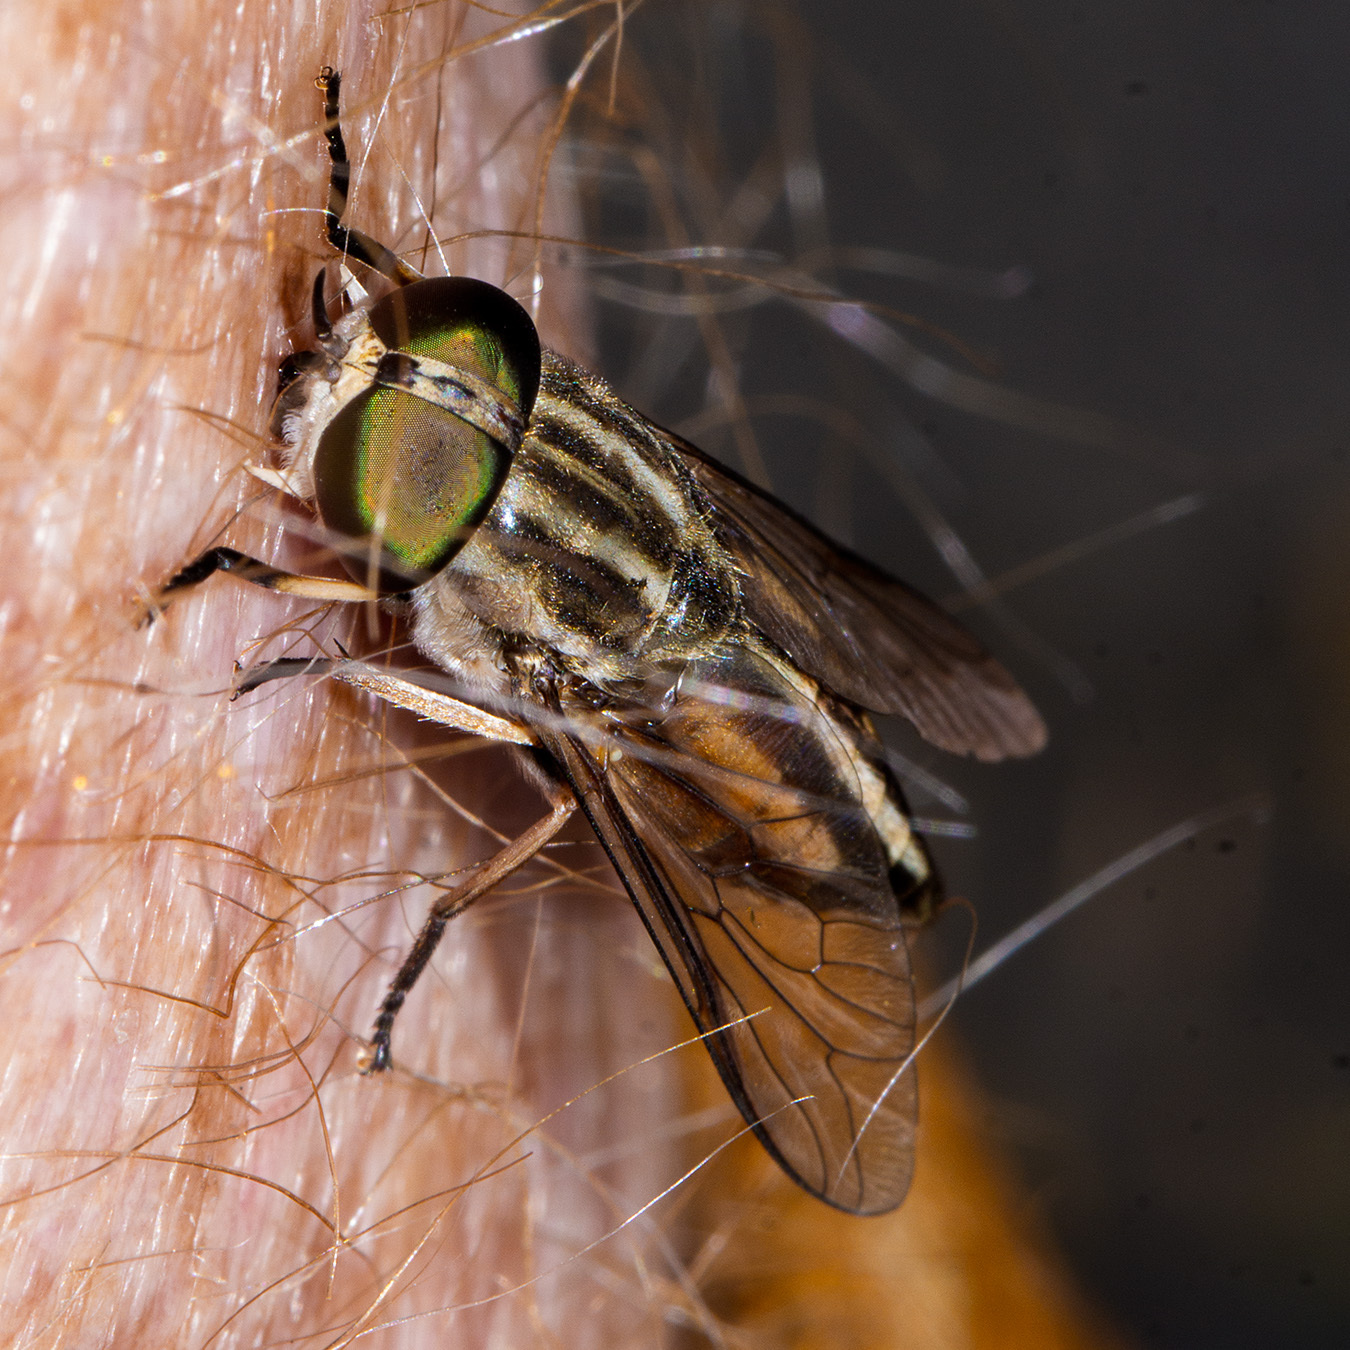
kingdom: Animalia
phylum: Arthropoda
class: Insecta
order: Diptera
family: Tabanidae
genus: Tabanus
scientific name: Tabanus taeniola
